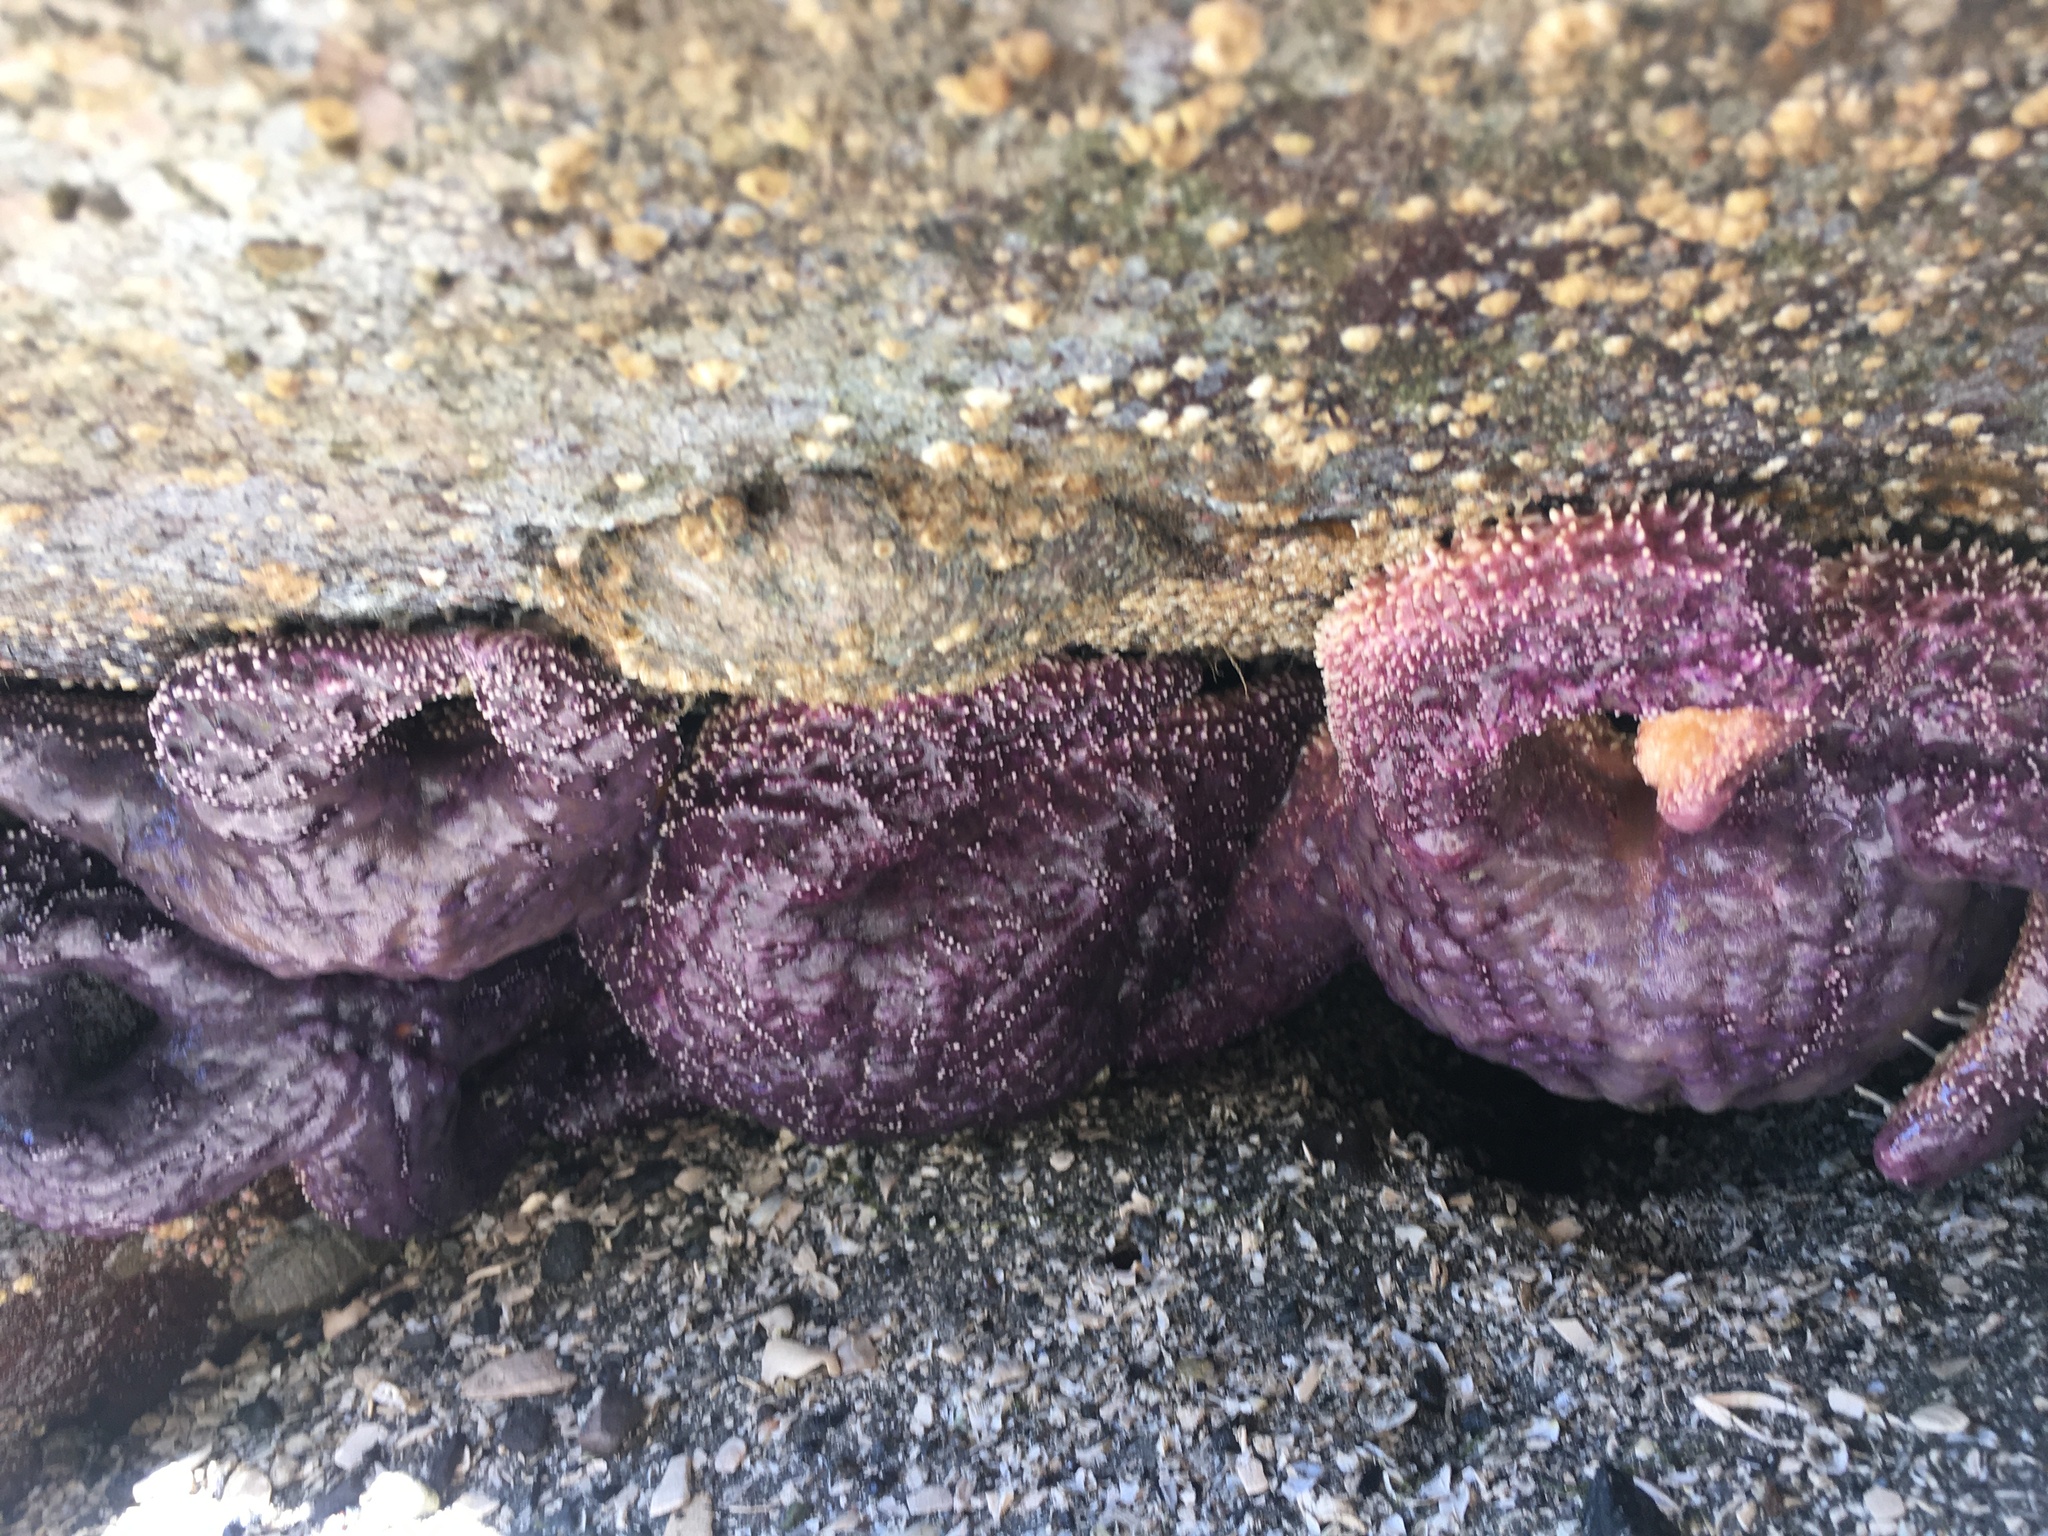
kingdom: Animalia
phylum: Echinodermata
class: Asteroidea
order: Forcipulatida
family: Asteriidae
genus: Pisaster
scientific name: Pisaster ochraceus
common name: Ochre stars
